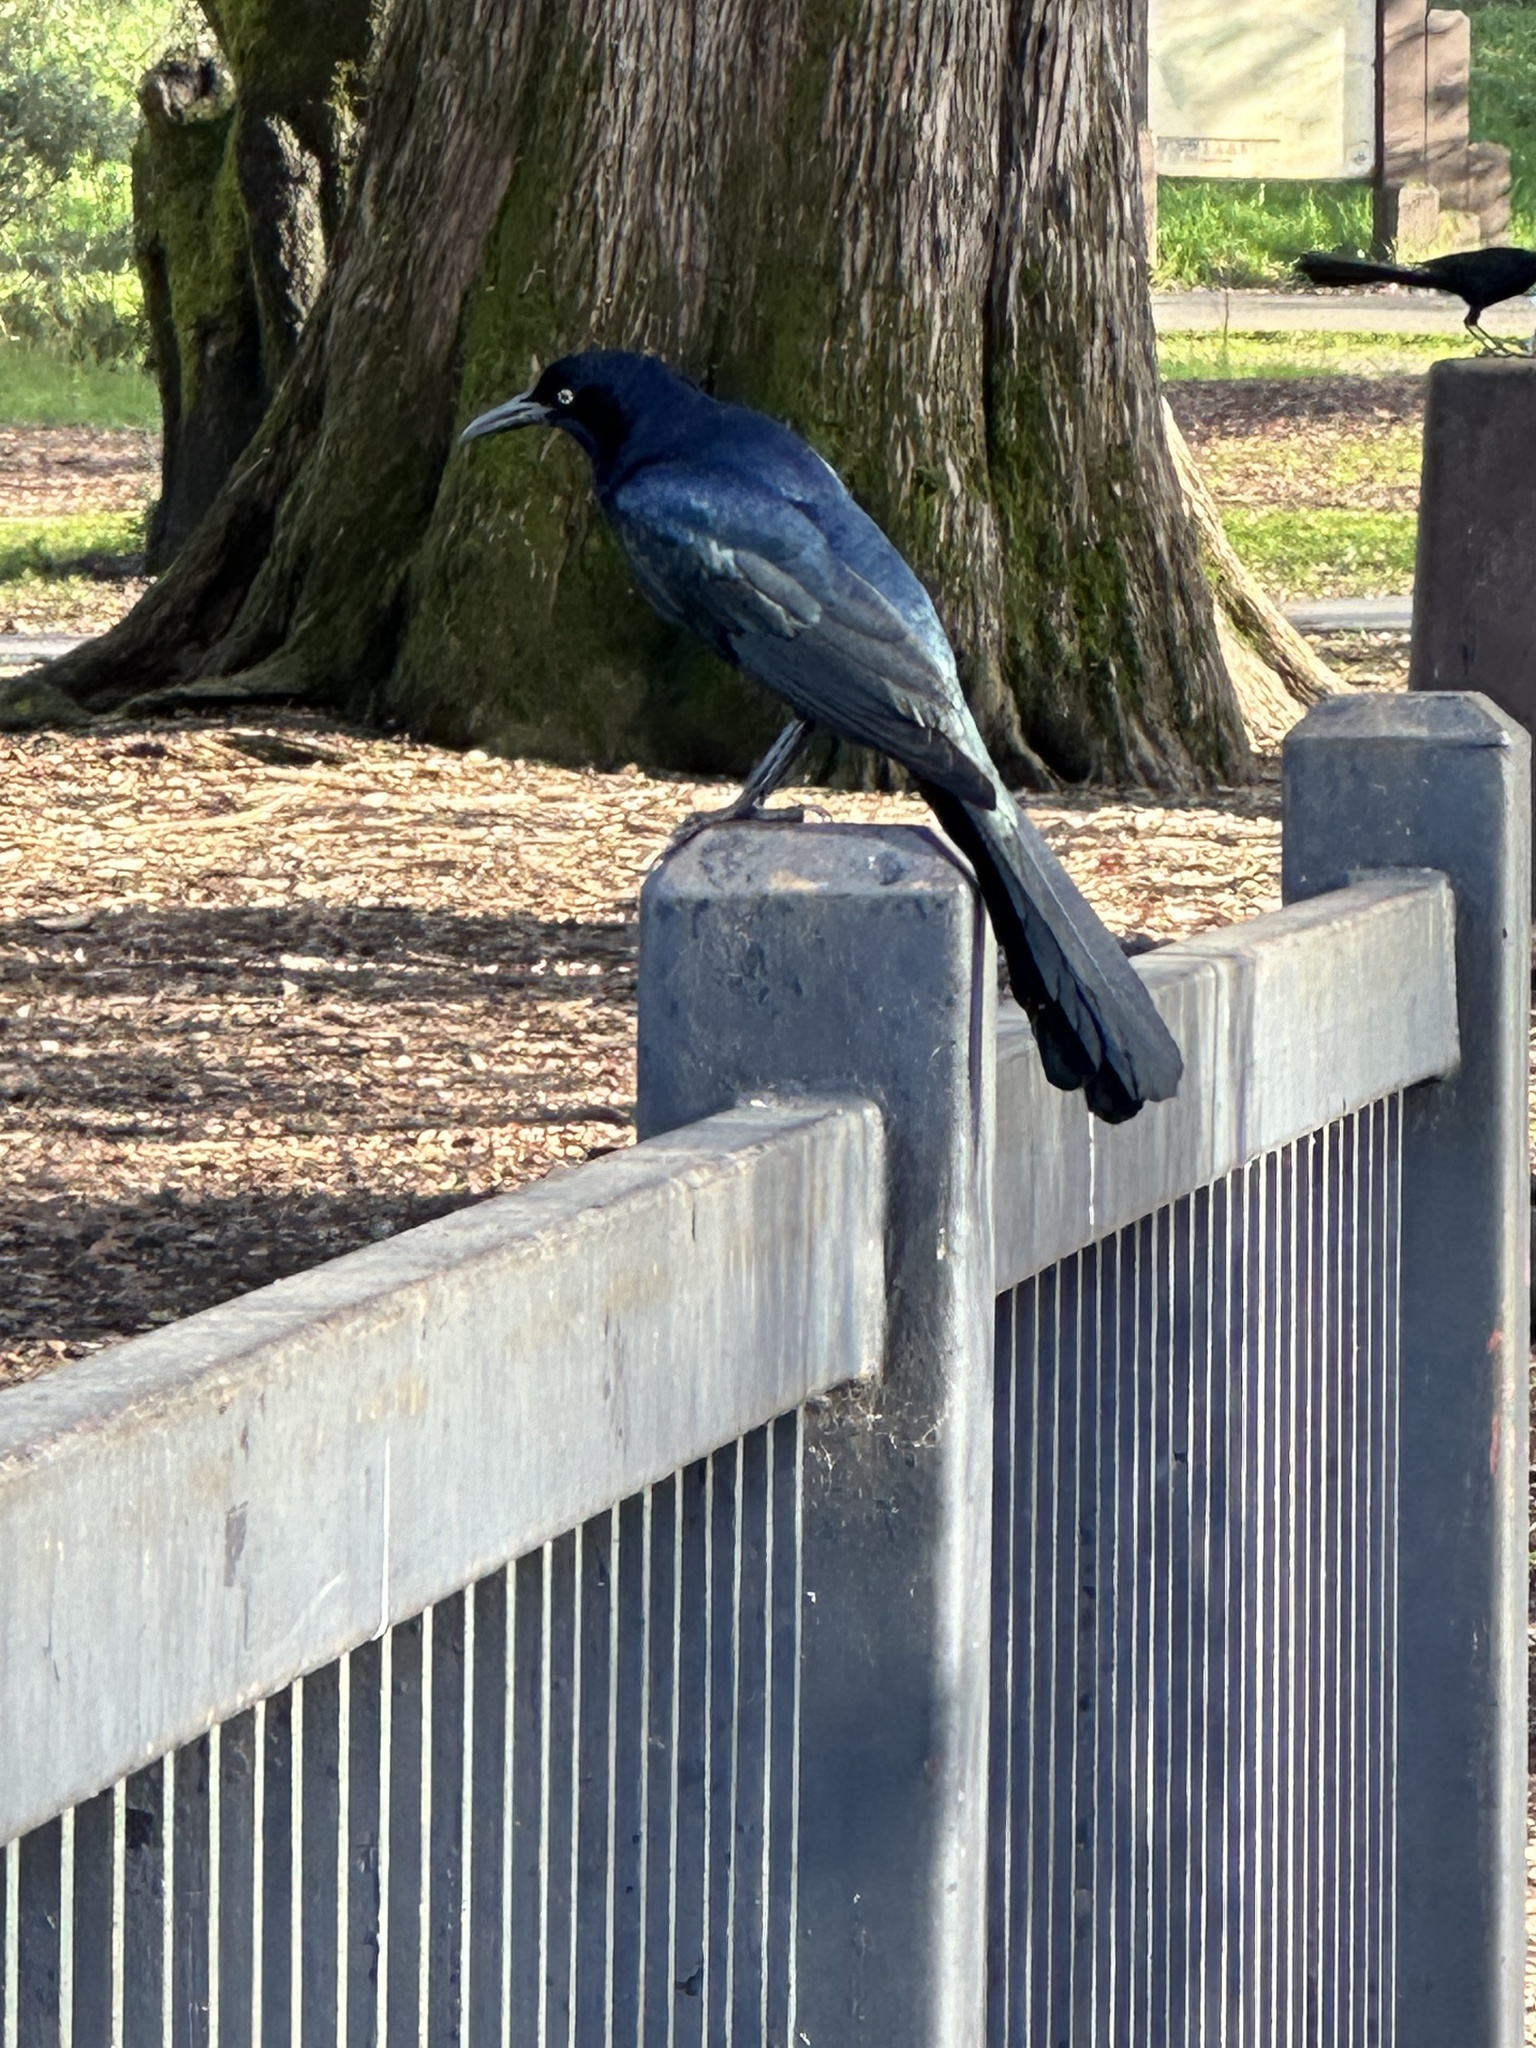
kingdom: Animalia
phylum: Chordata
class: Aves
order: Passeriformes
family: Icteridae
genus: Quiscalus
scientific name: Quiscalus mexicanus
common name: Great-tailed grackle
